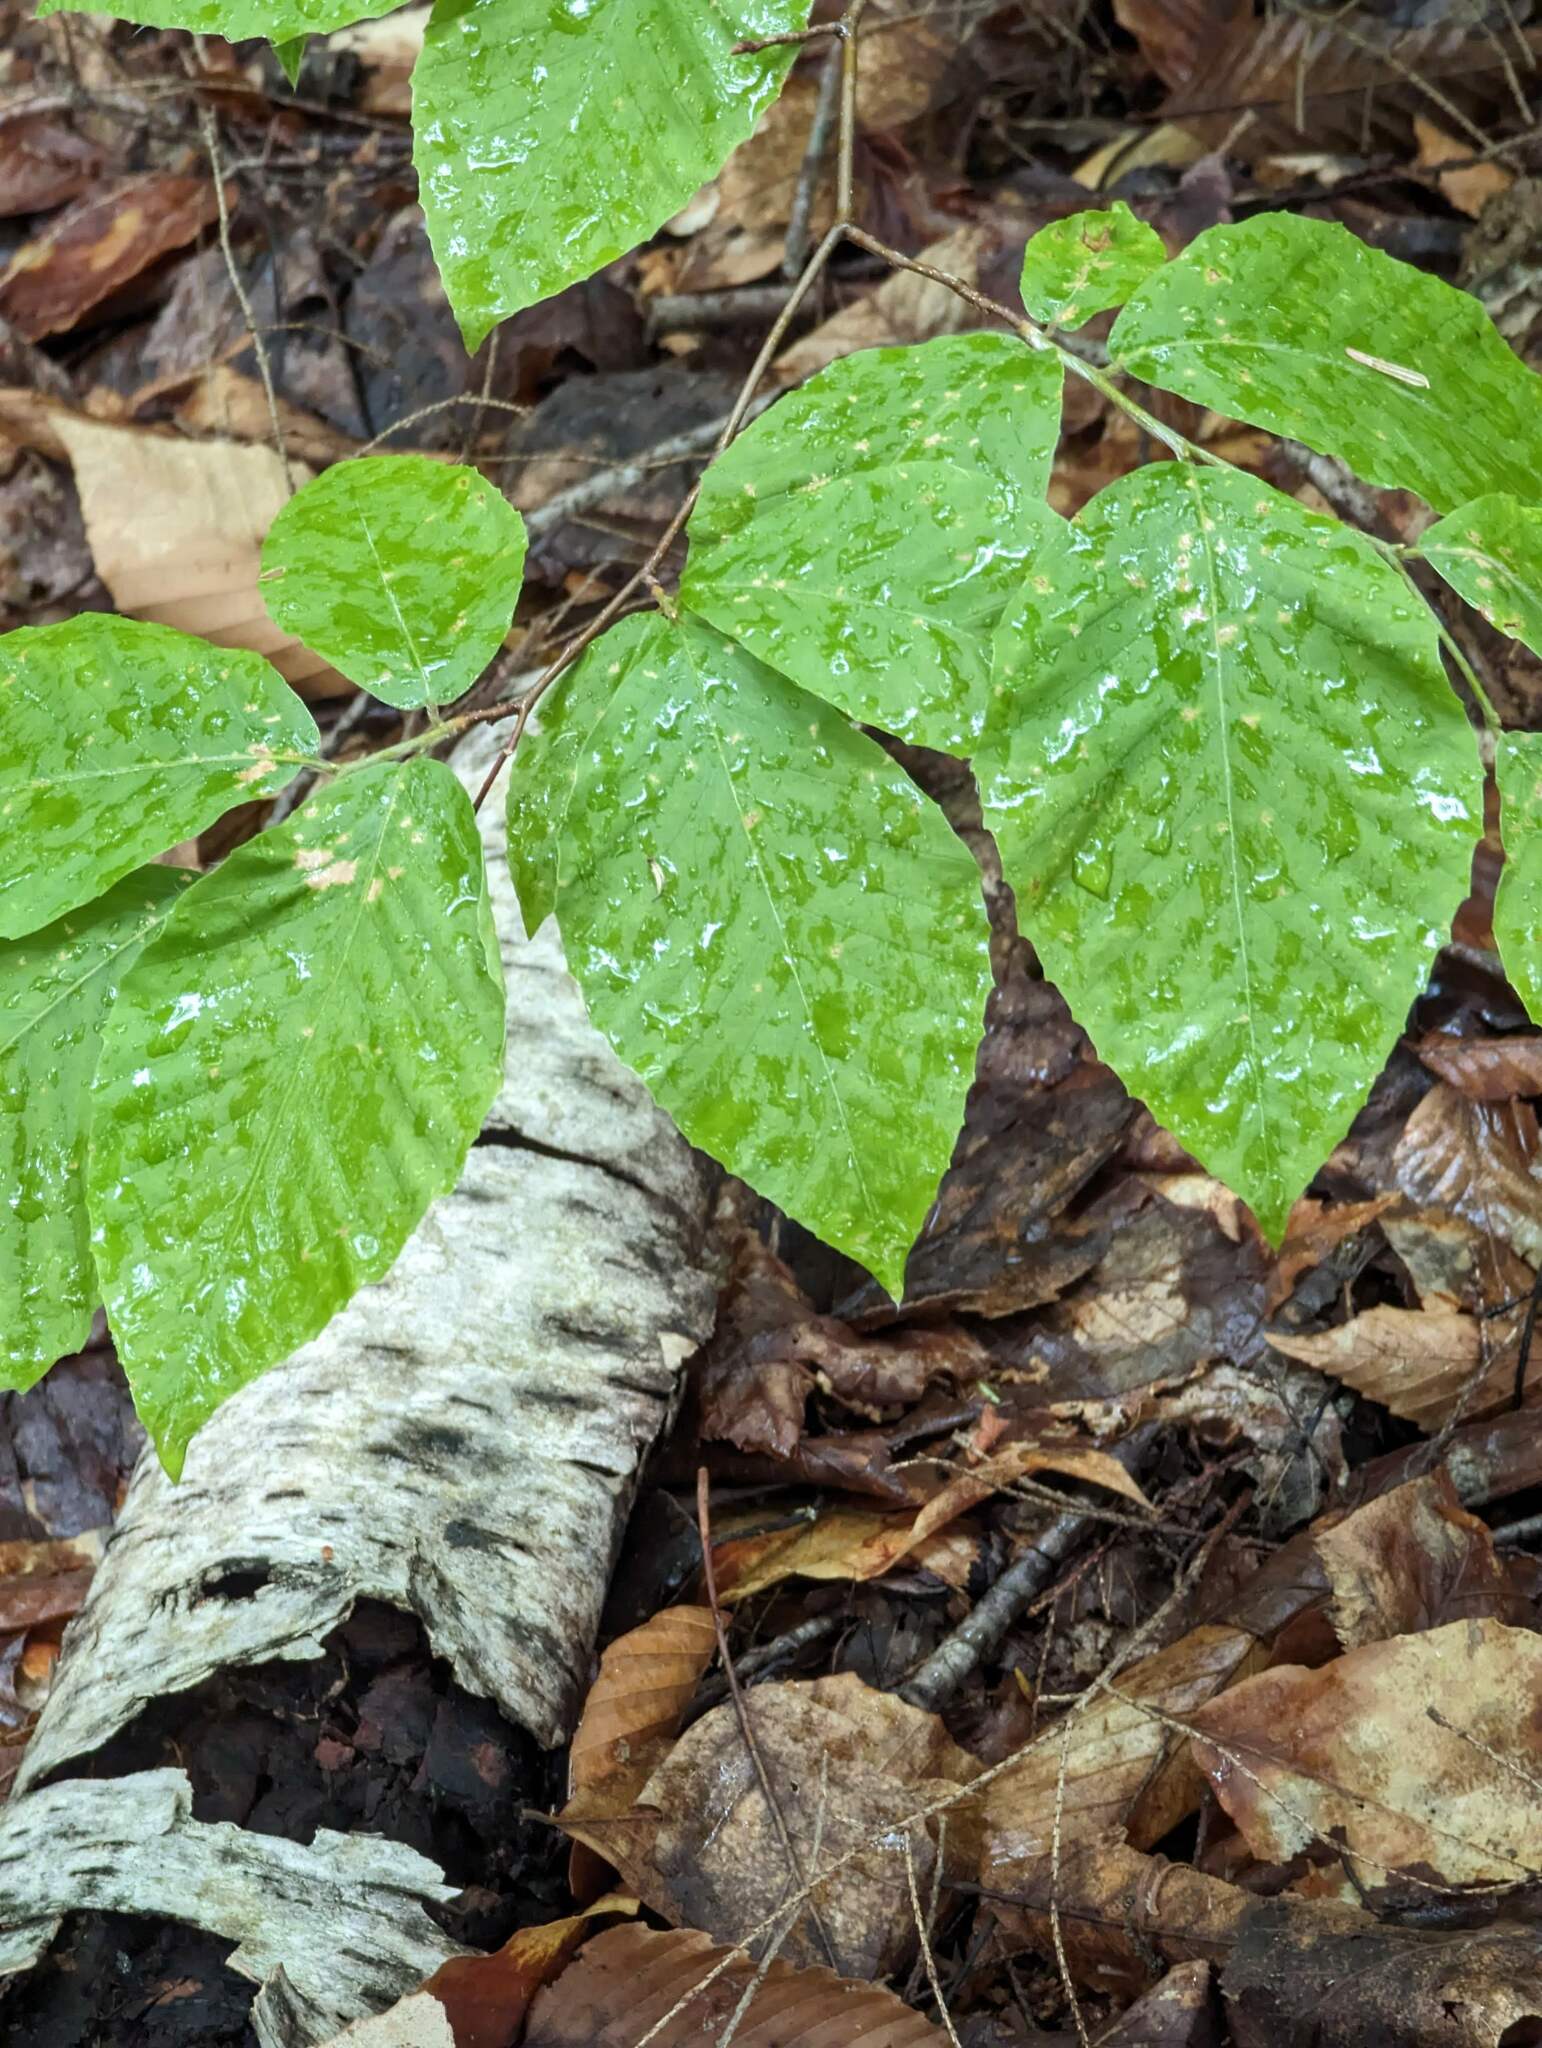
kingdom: Plantae
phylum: Tracheophyta
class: Magnoliopsida
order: Fagales
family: Fagaceae
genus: Fagus
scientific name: Fagus grandifolia
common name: American beech
